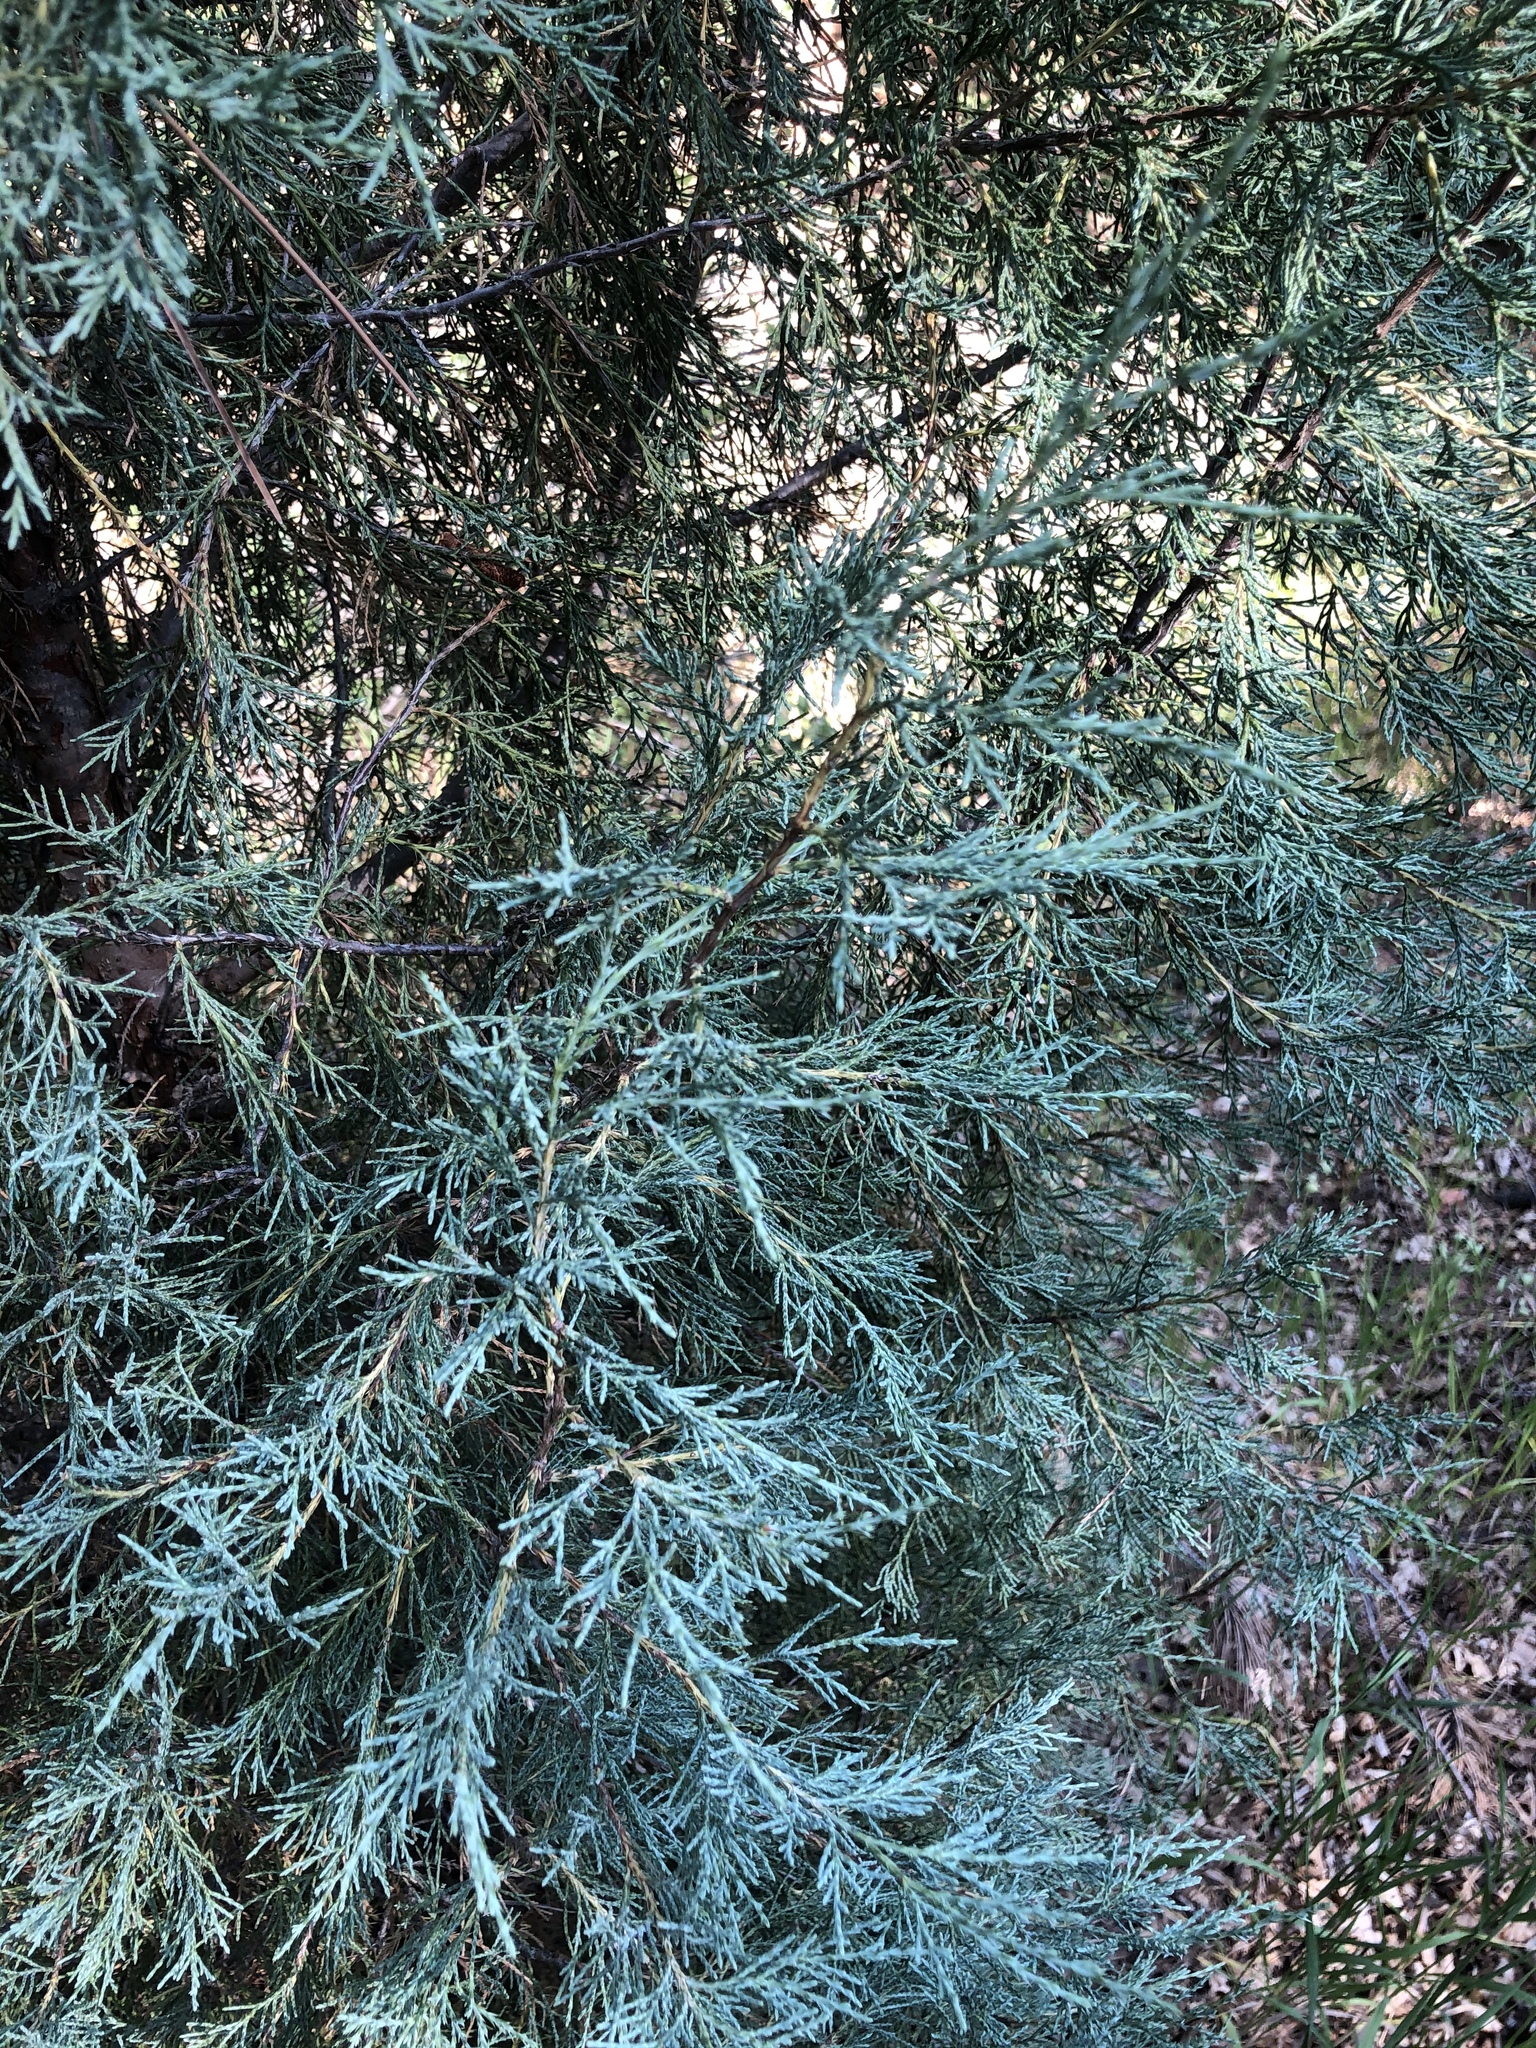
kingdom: Plantae
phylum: Tracheophyta
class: Pinopsida
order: Pinales
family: Cupressaceae
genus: Juniperus
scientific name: Juniperus scopulorum
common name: Rocky mountain juniper
